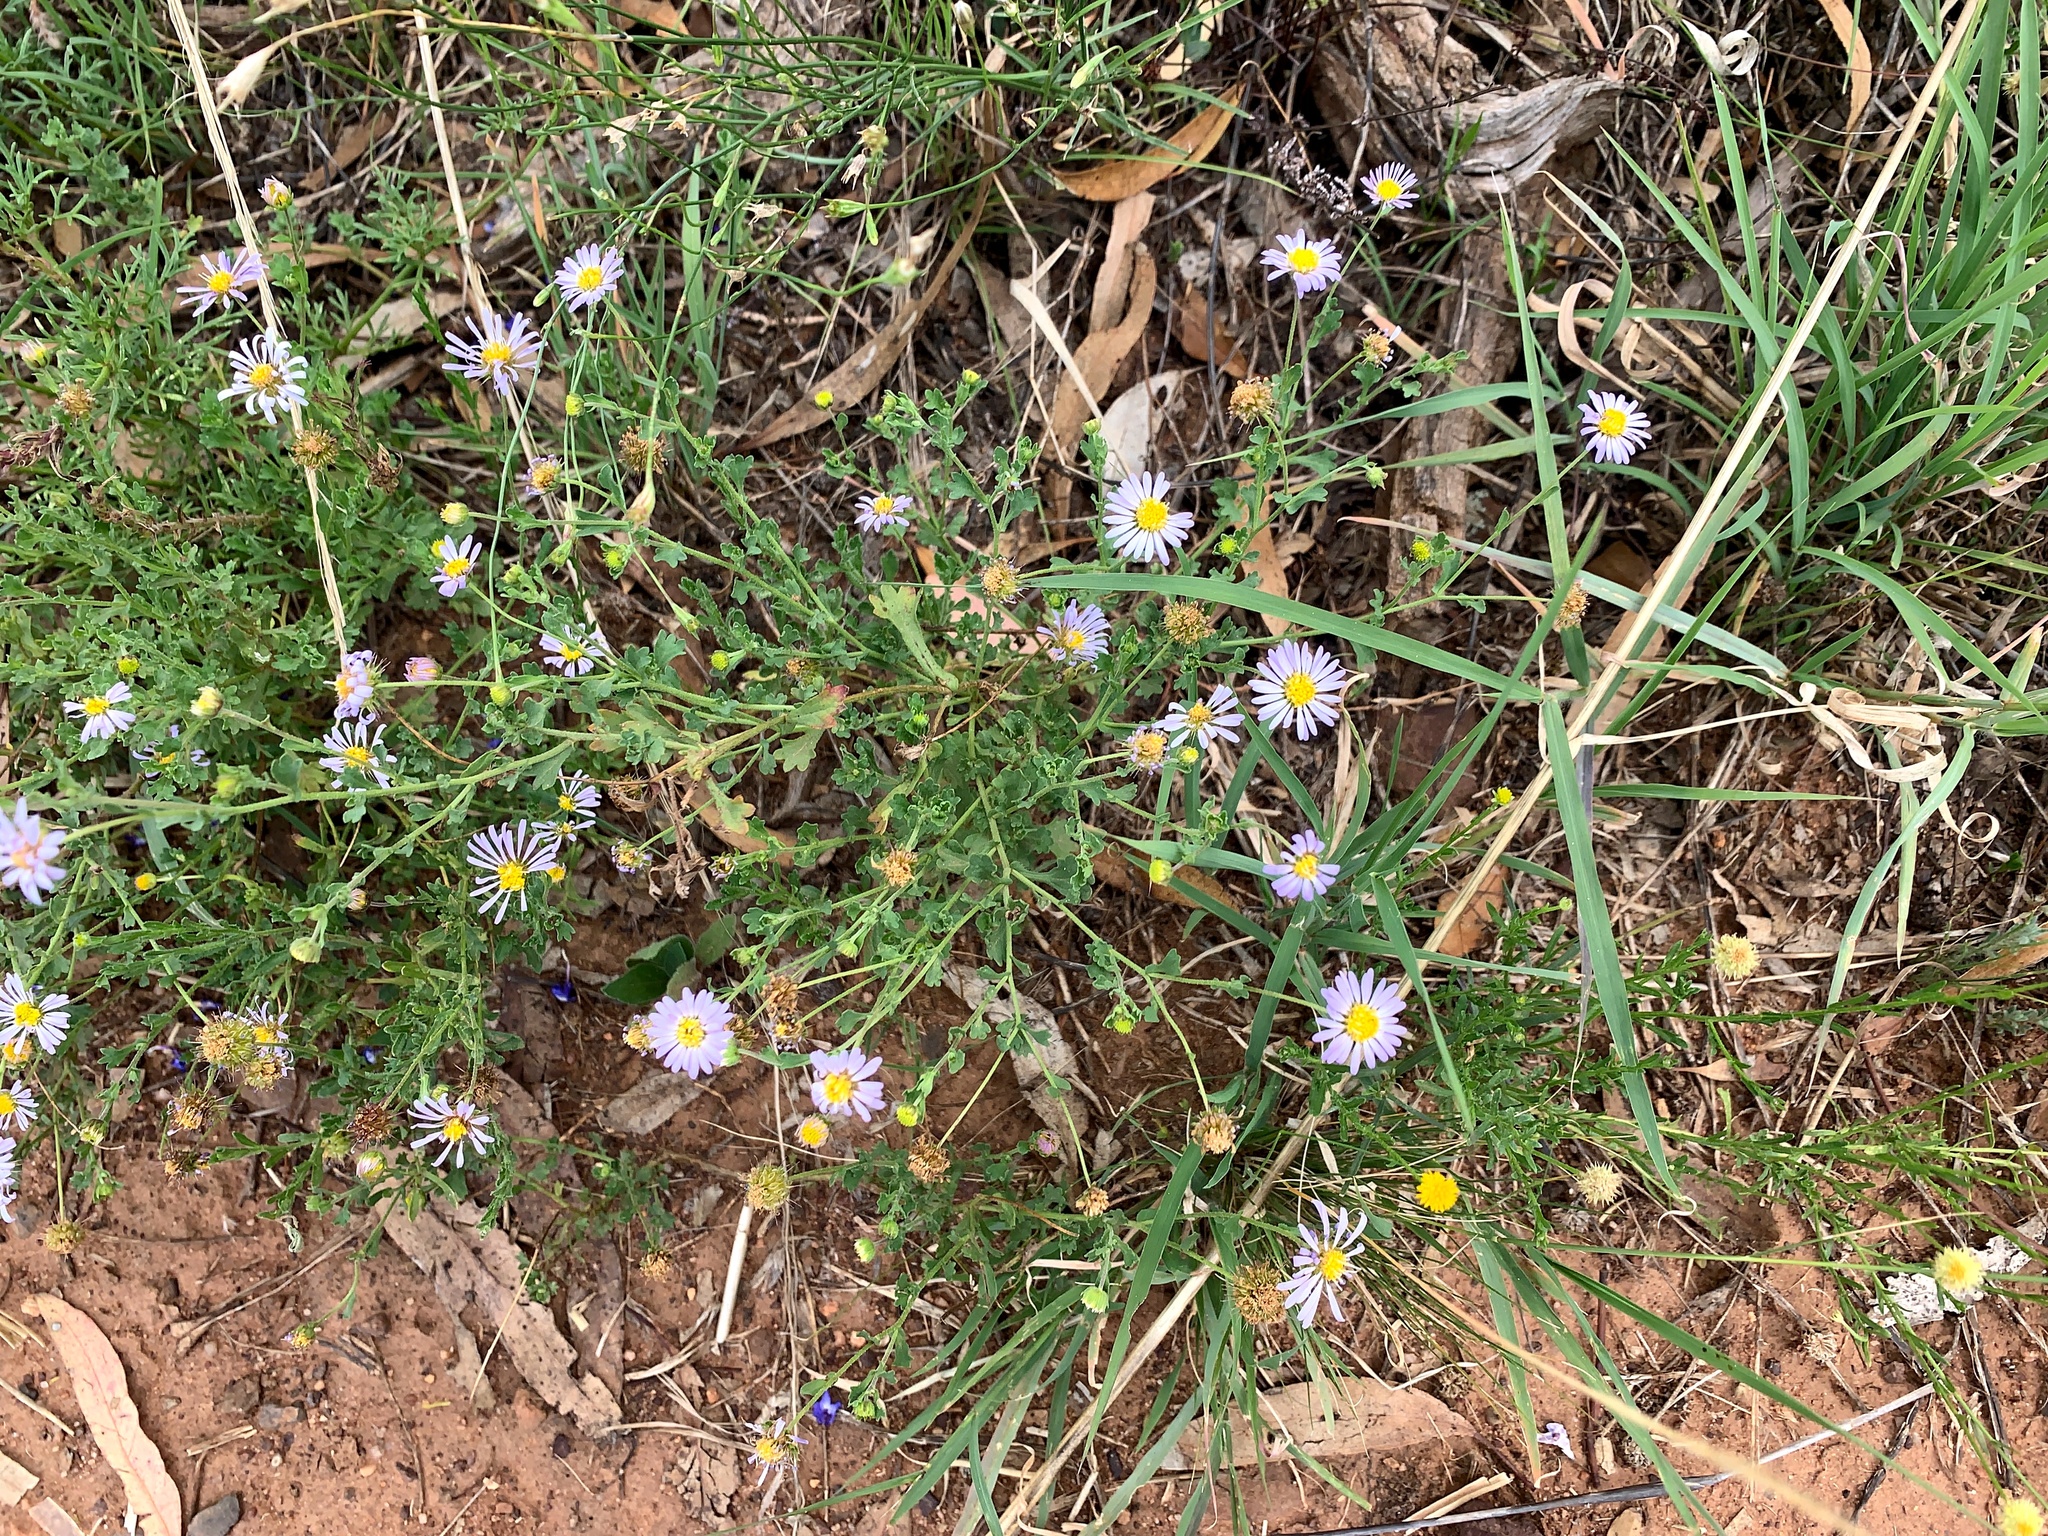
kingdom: Plantae
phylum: Tracheophyta
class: Magnoliopsida
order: Asterales
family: Asteraceae
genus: Calotis
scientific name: Calotis cuneifolia
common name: Bur-daisy
